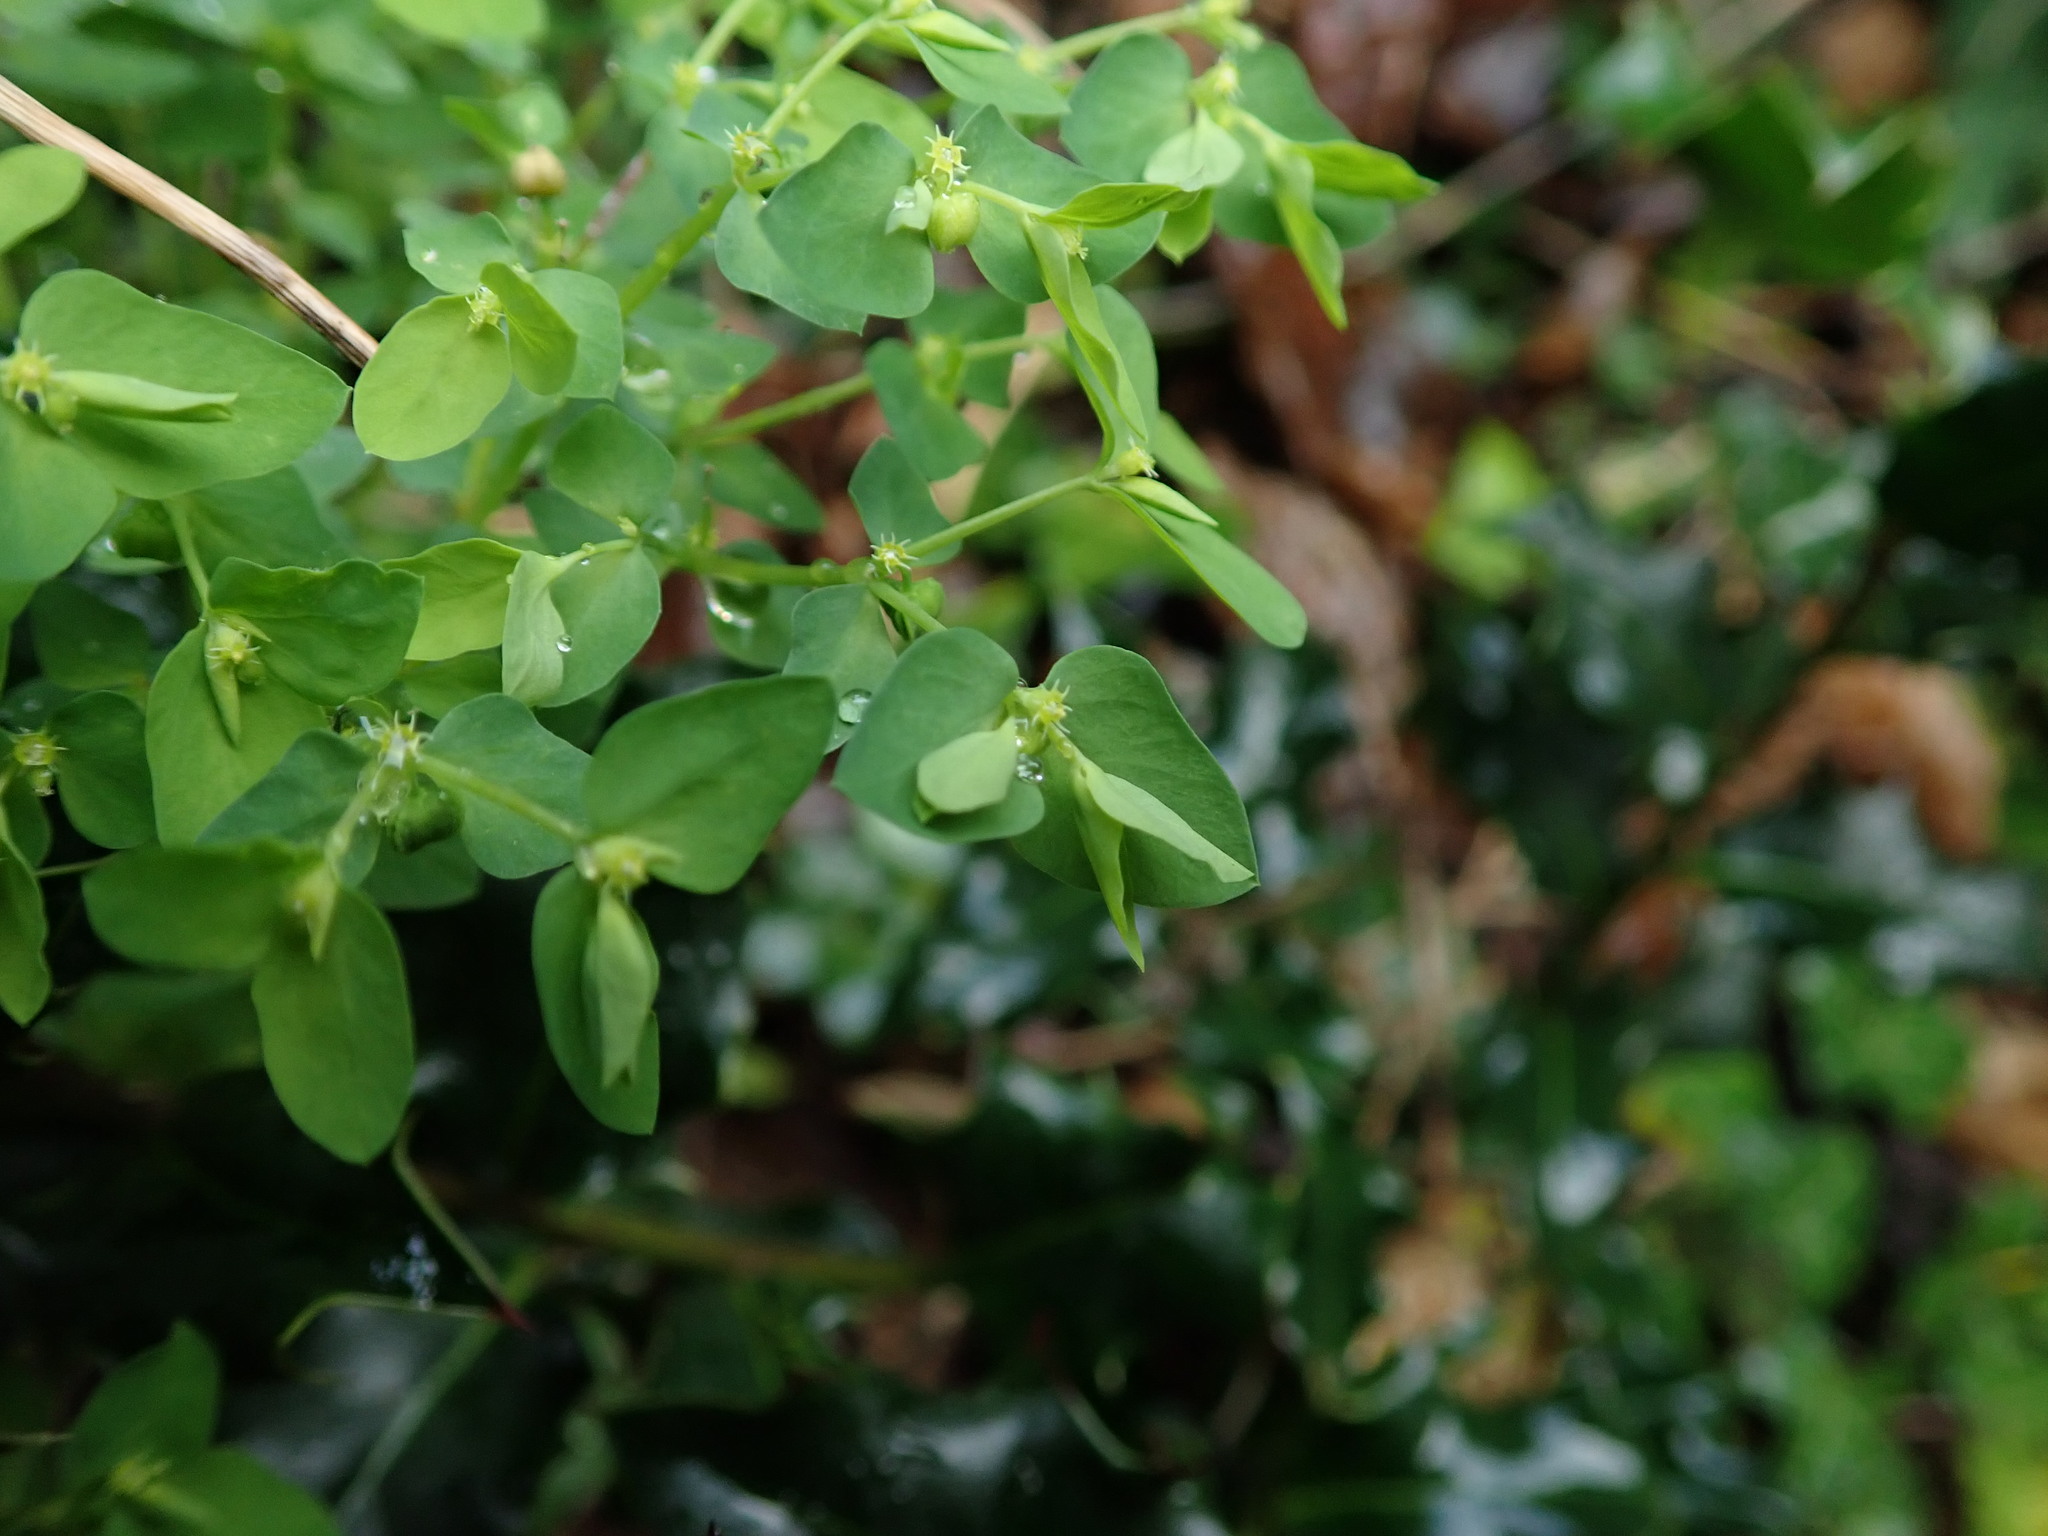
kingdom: Plantae
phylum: Tracheophyta
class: Magnoliopsida
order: Malpighiales
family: Euphorbiaceae
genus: Euphorbia
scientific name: Euphorbia peplus
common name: Petty spurge
